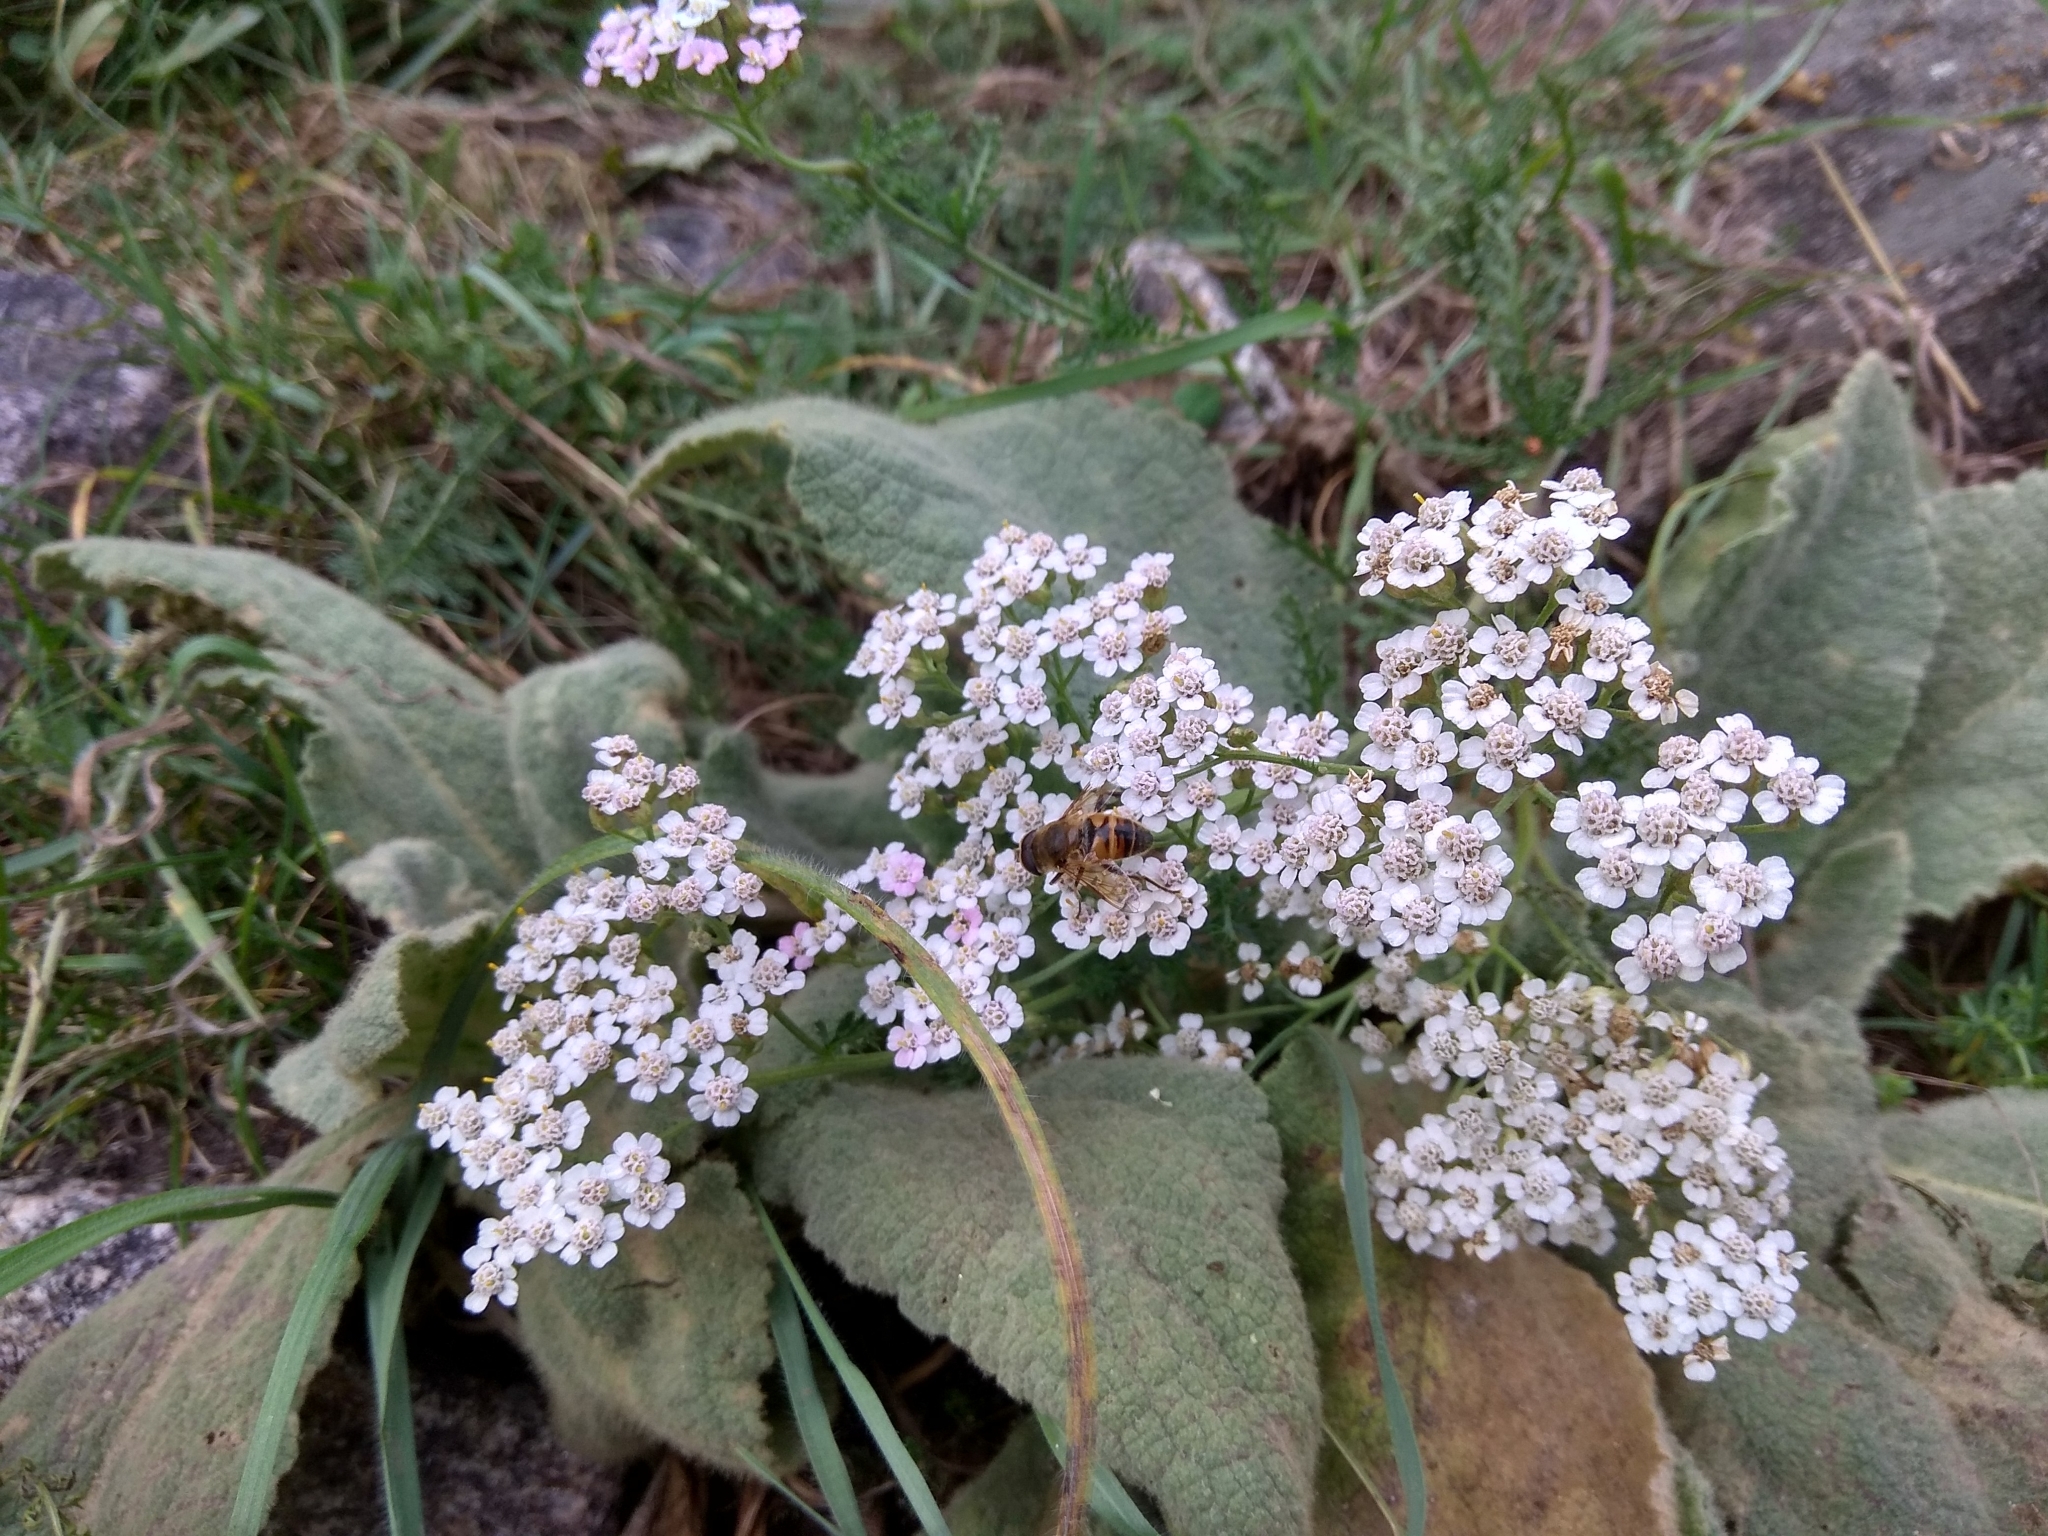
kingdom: Plantae
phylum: Tracheophyta
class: Magnoliopsida
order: Asterales
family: Asteraceae
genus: Achillea
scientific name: Achillea millefolium
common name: Yarrow
